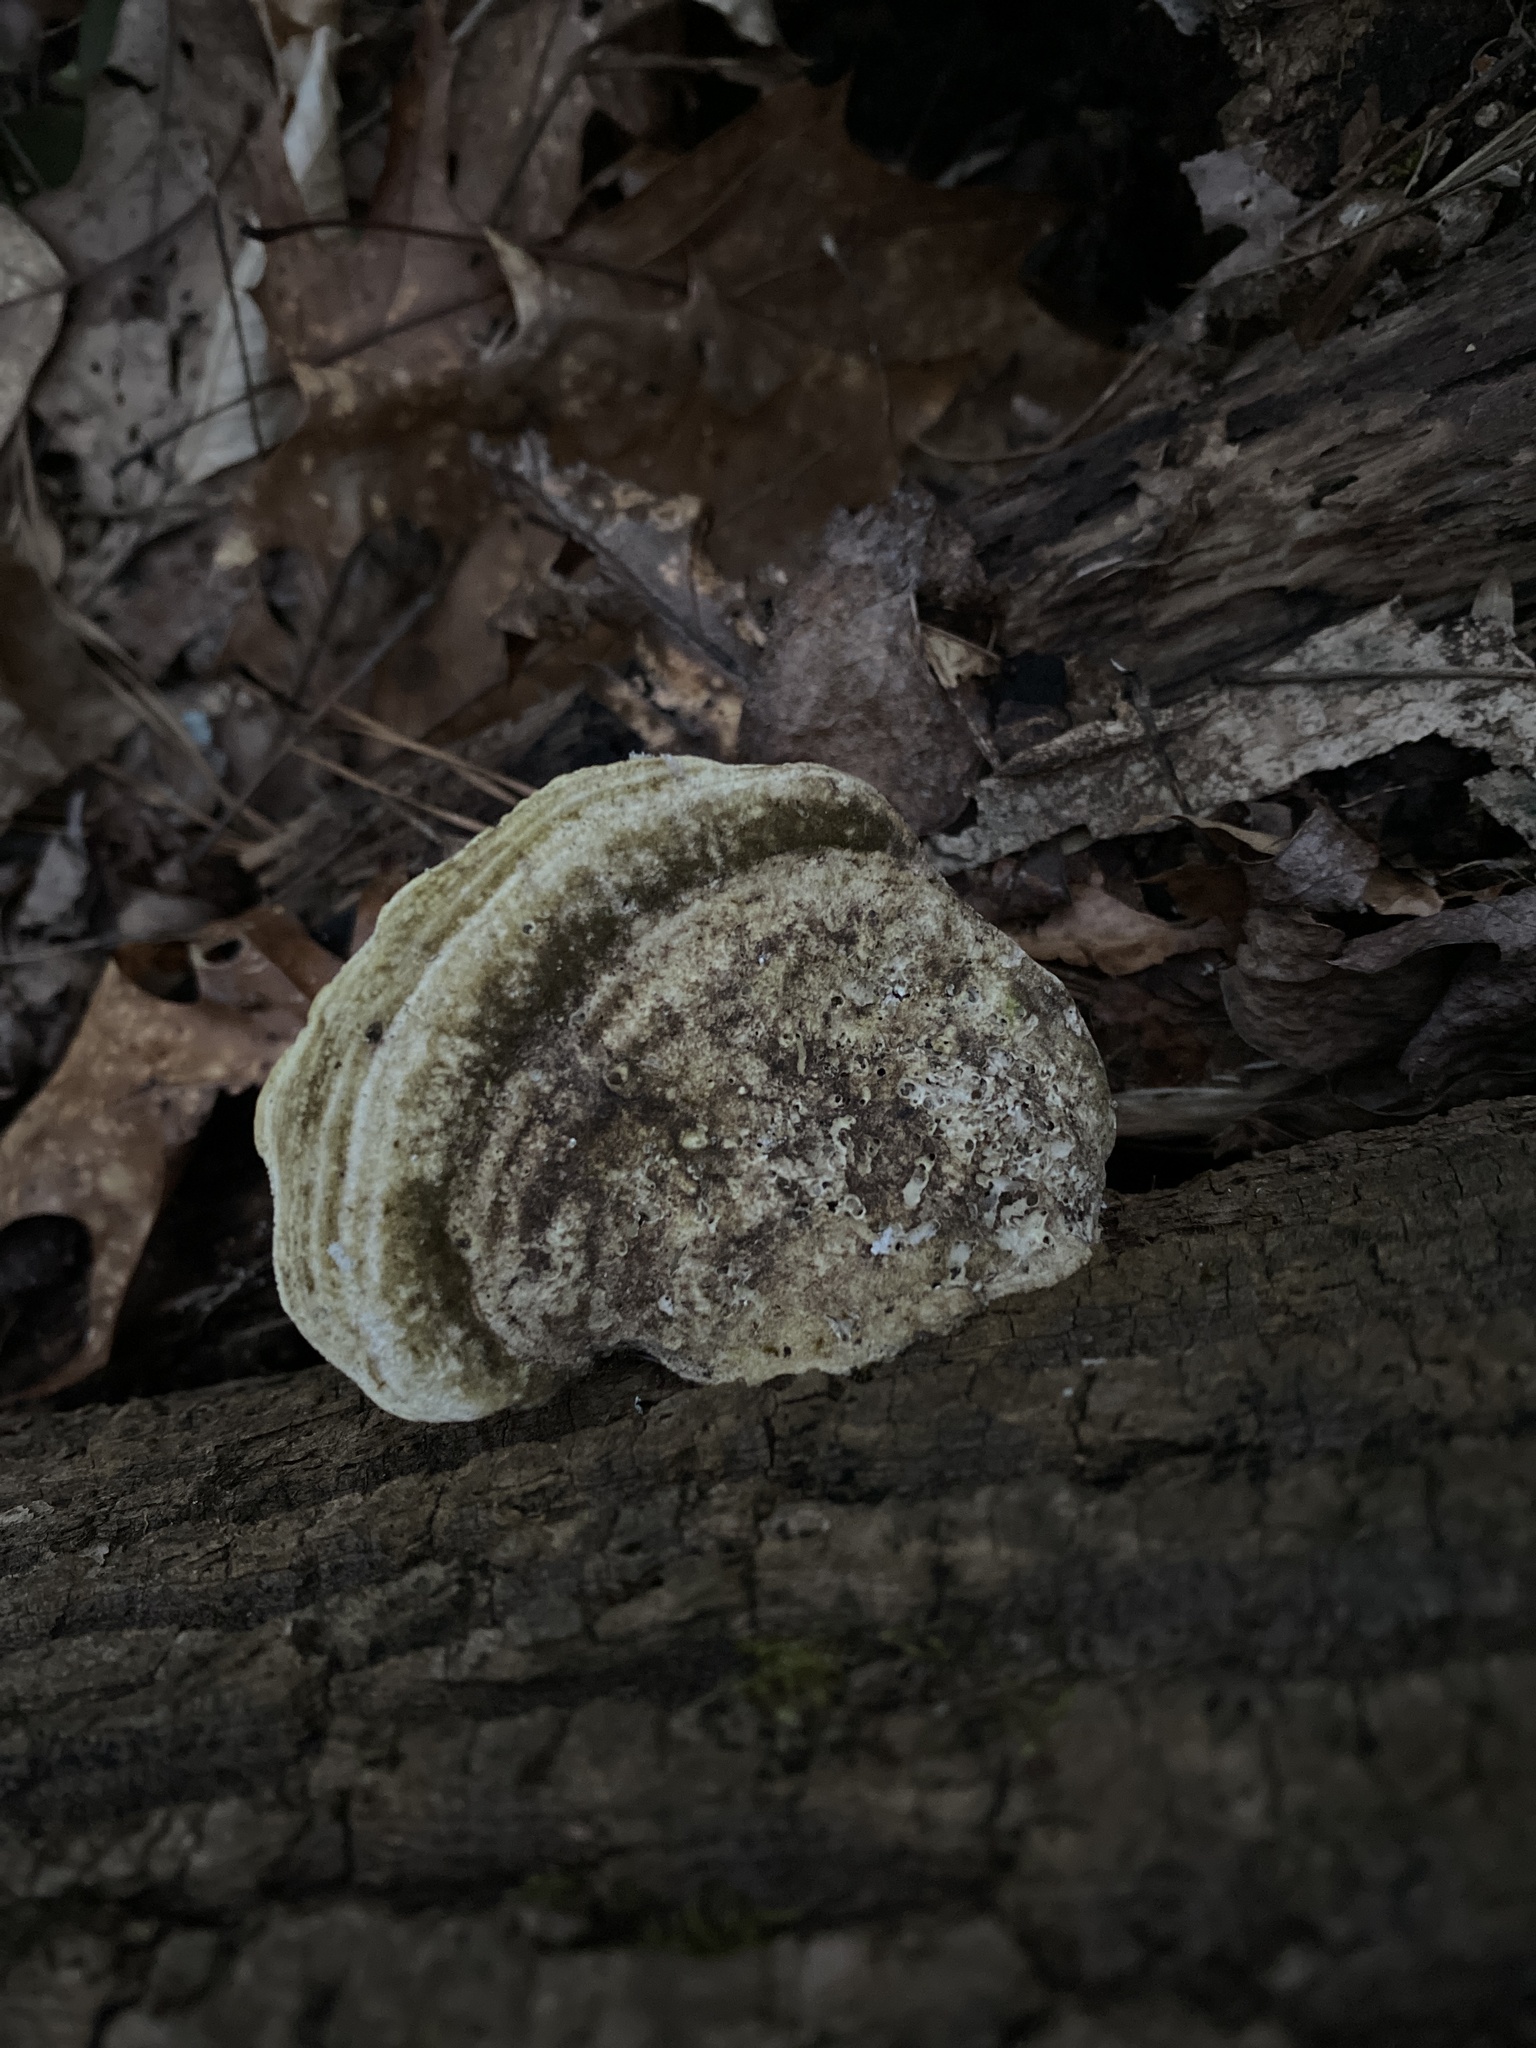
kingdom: Fungi
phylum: Basidiomycota
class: Agaricomycetes
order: Polyporales
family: Polyporaceae
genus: Trametes
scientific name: Trametes gibbosa
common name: Lumpy bracket
